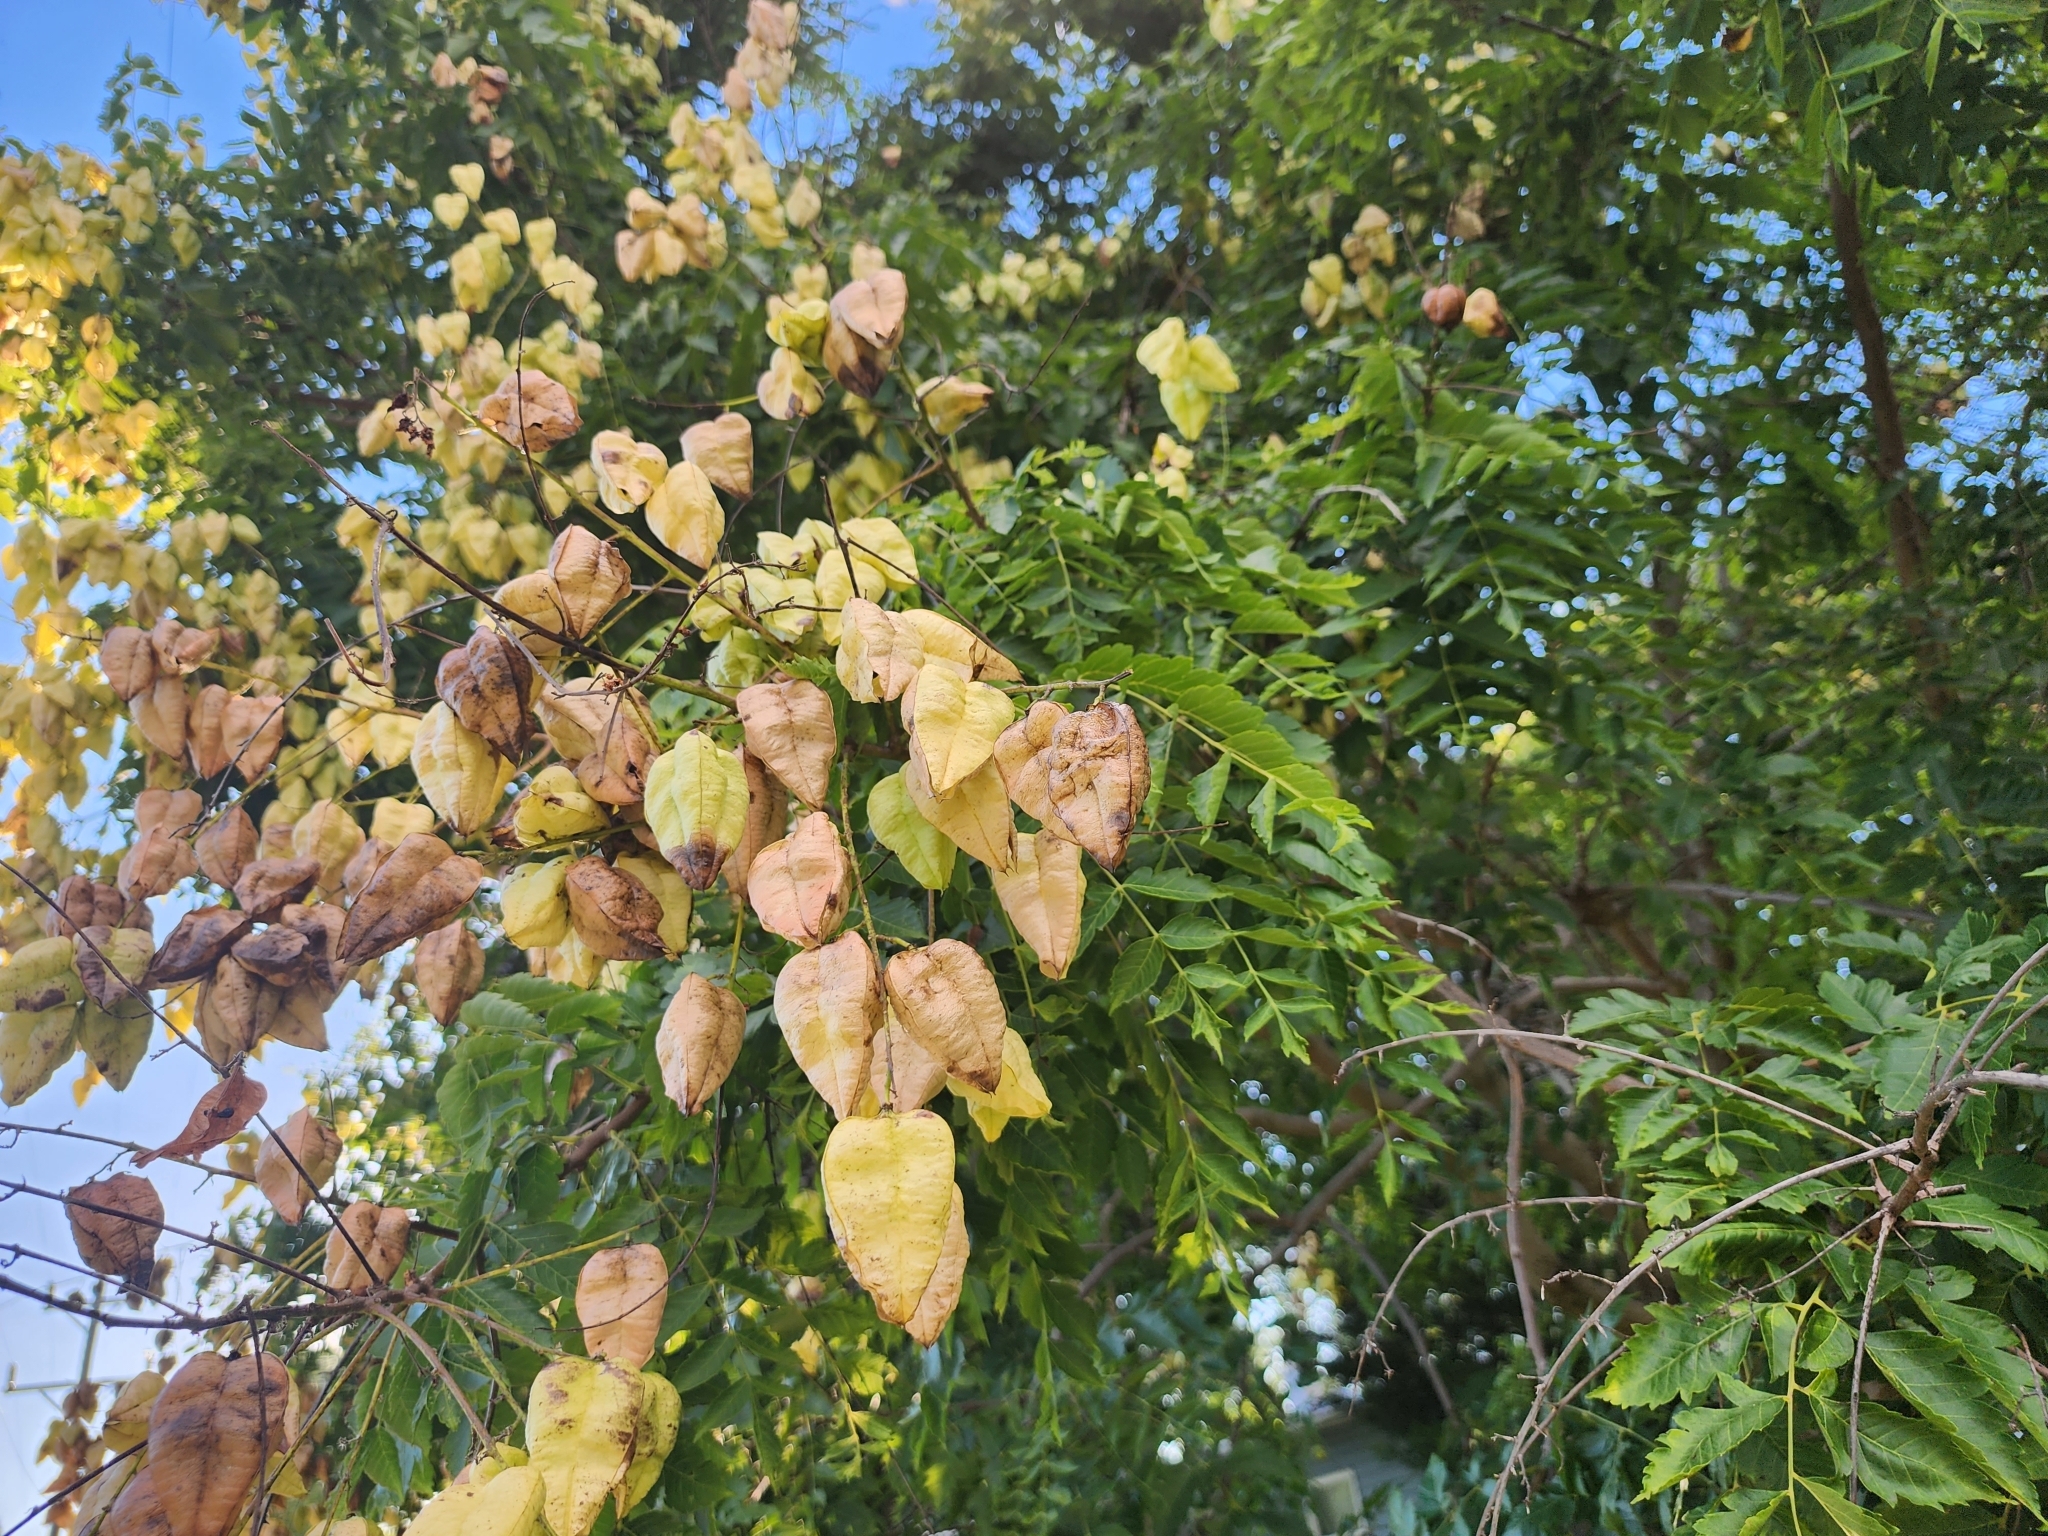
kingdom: Plantae
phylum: Tracheophyta
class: Magnoliopsida
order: Sapindales
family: Sapindaceae
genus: Koelreuteria
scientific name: Koelreuteria paniculata
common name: Pride-of-india
